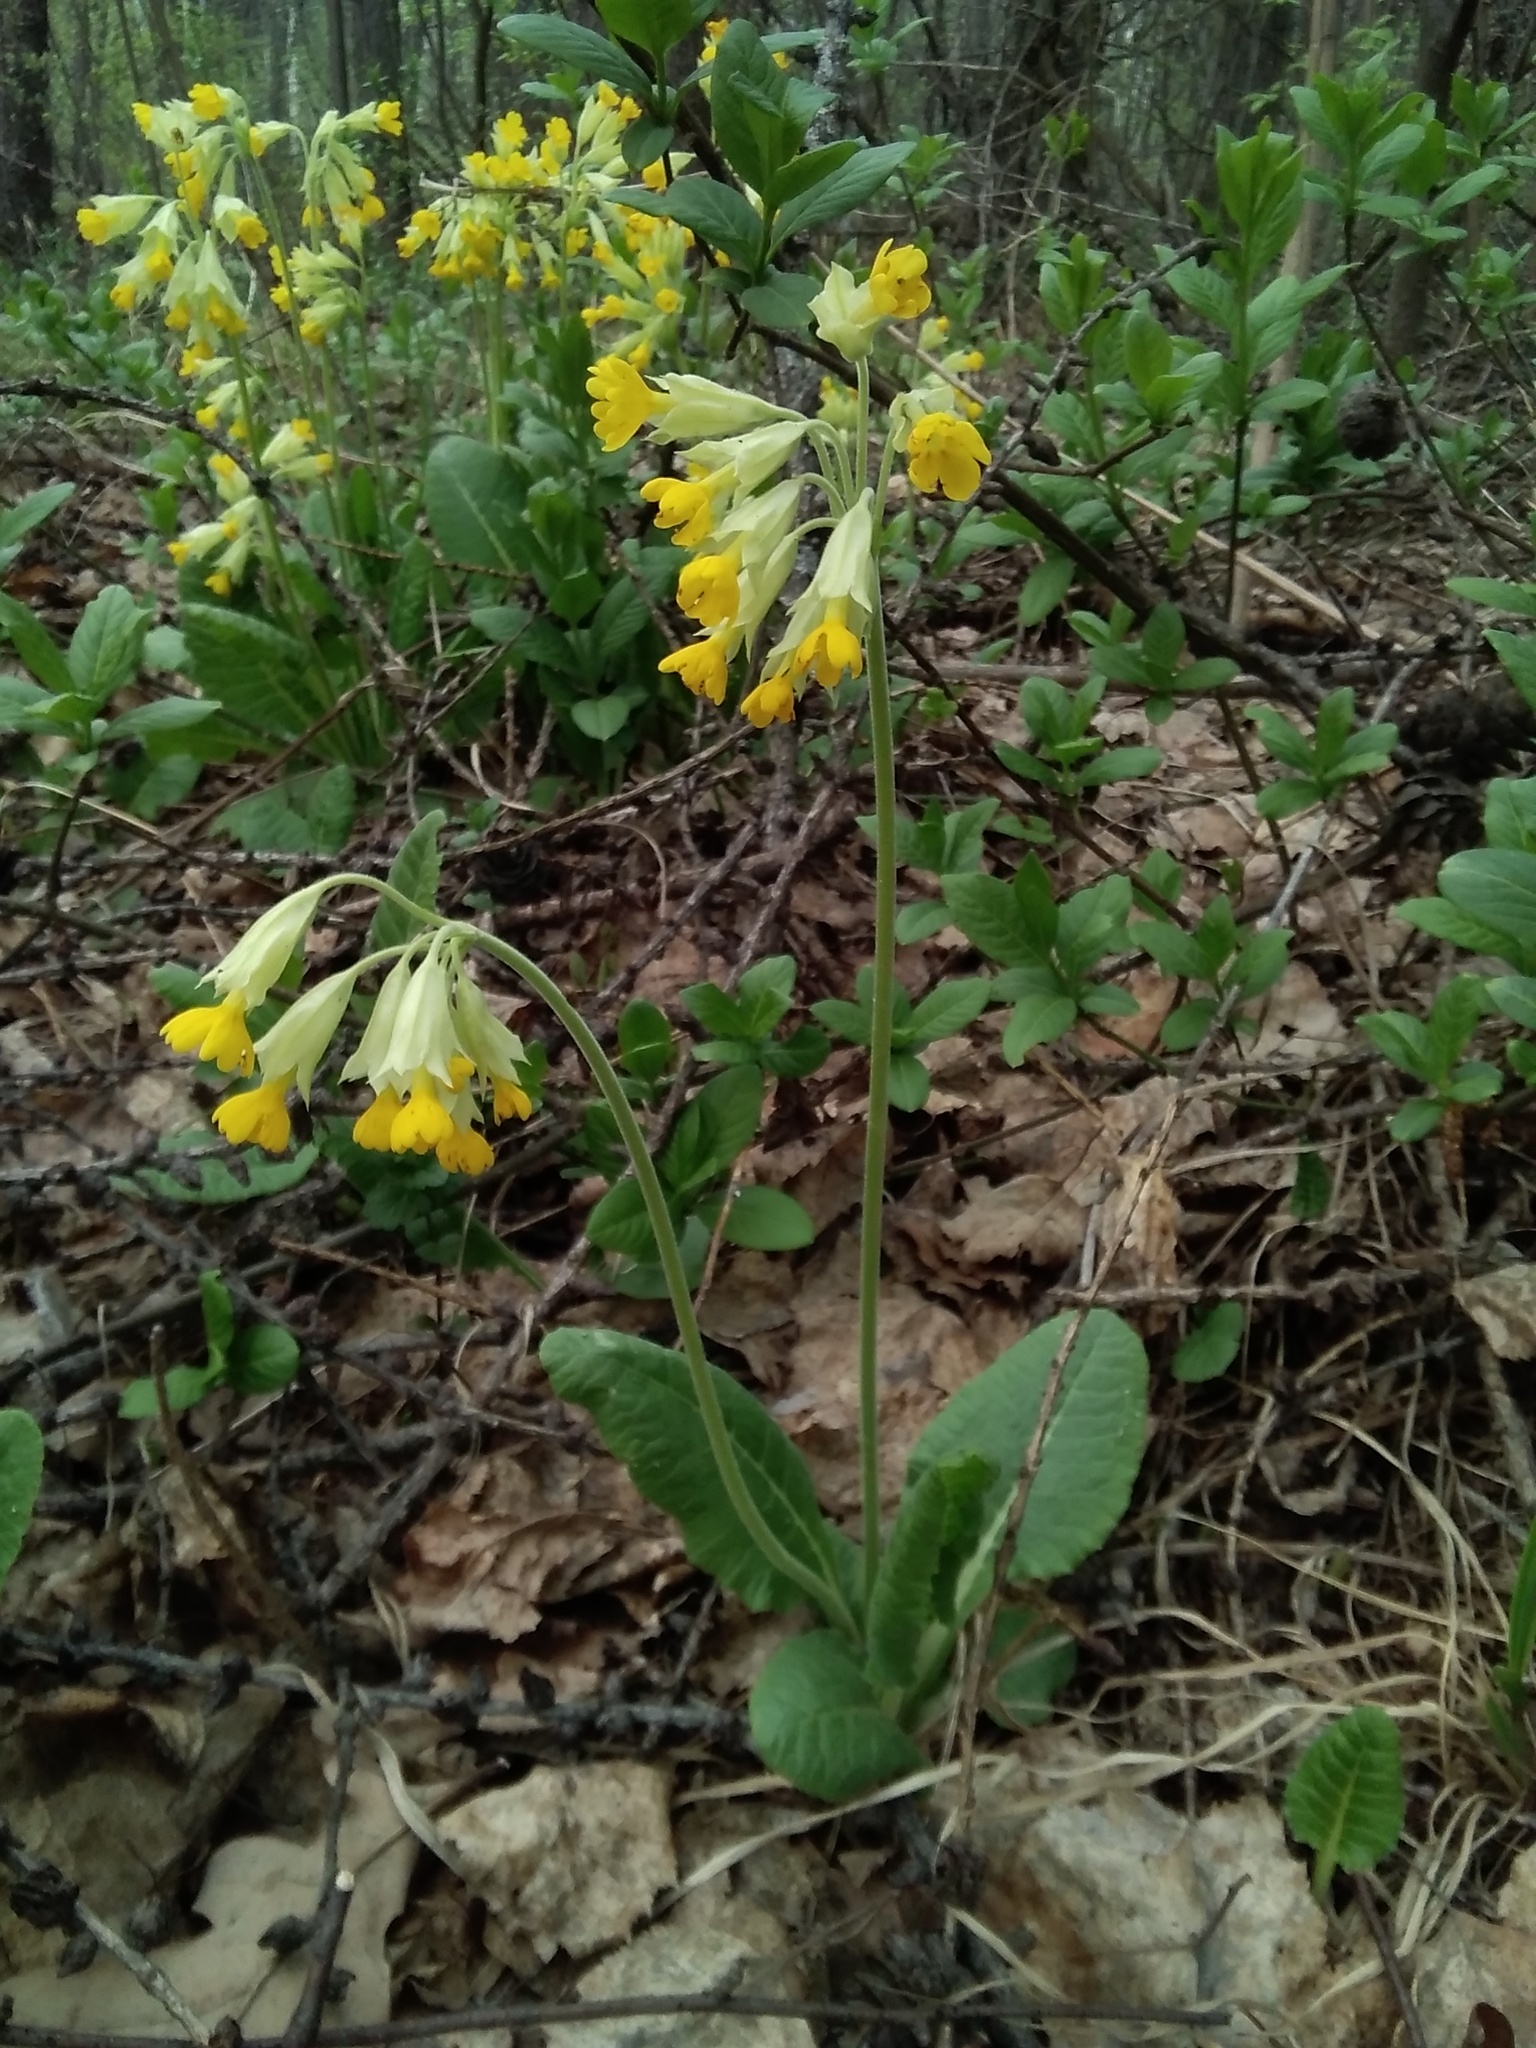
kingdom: Plantae
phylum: Tracheophyta
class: Magnoliopsida
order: Ericales
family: Primulaceae
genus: Primula
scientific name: Primula veris
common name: Cowslip
